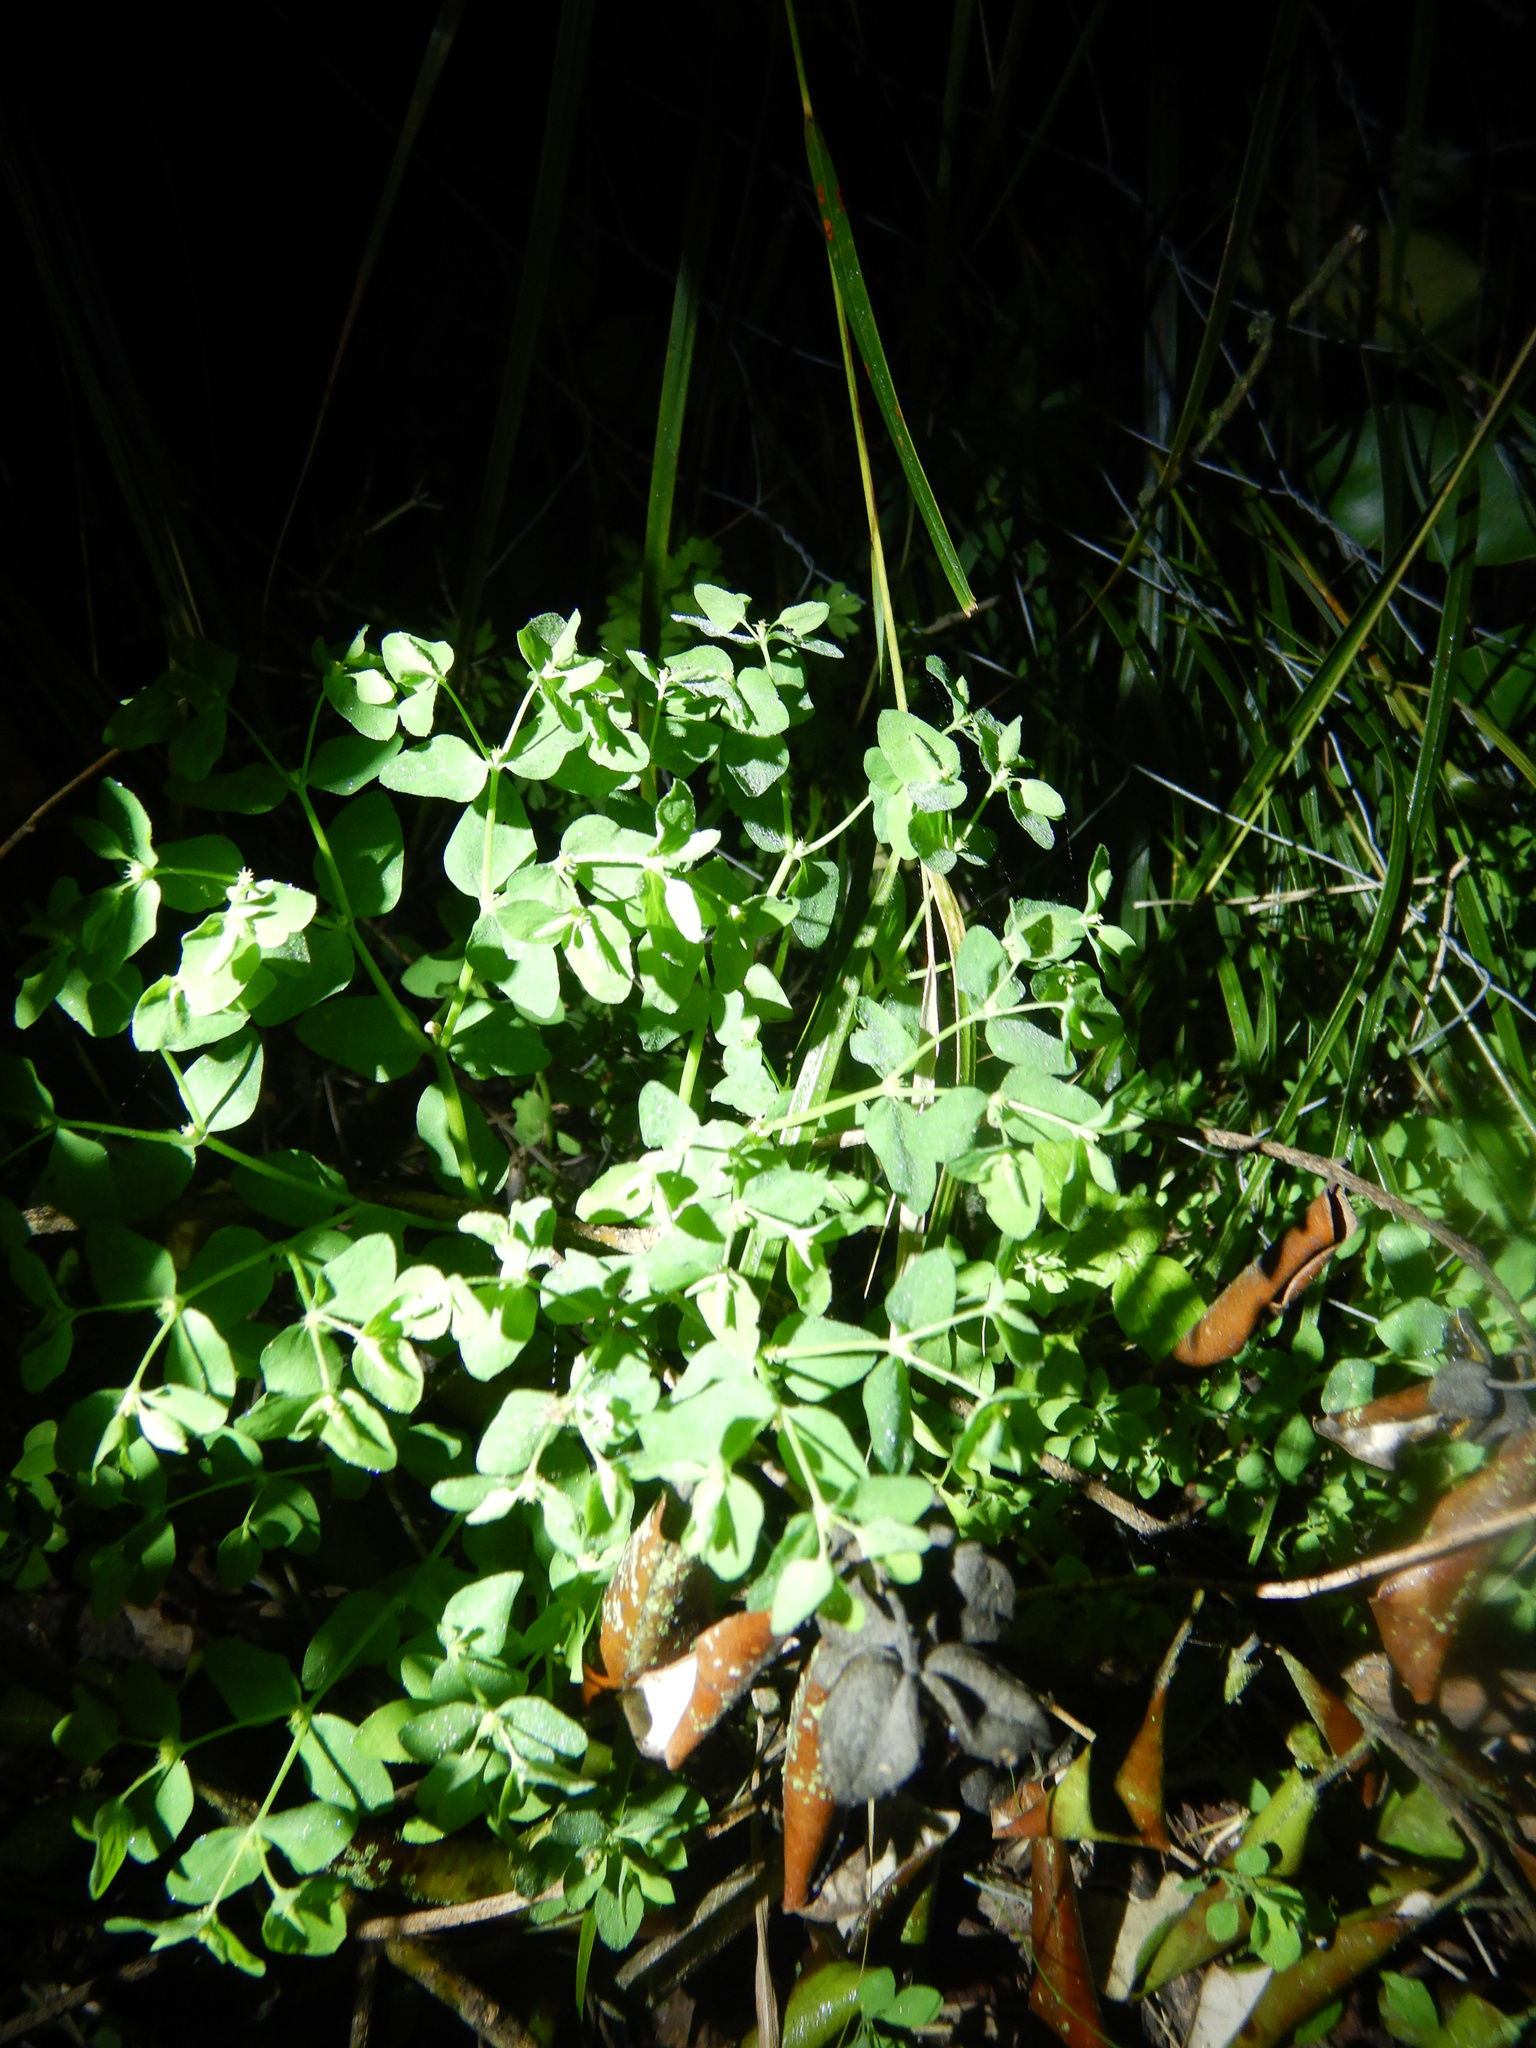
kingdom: Plantae
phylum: Tracheophyta
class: Magnoliopsida
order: Malpighiales
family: Euphorbiaceae
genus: Euphorbia
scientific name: Euphorbia peplus
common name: Petty spurge
